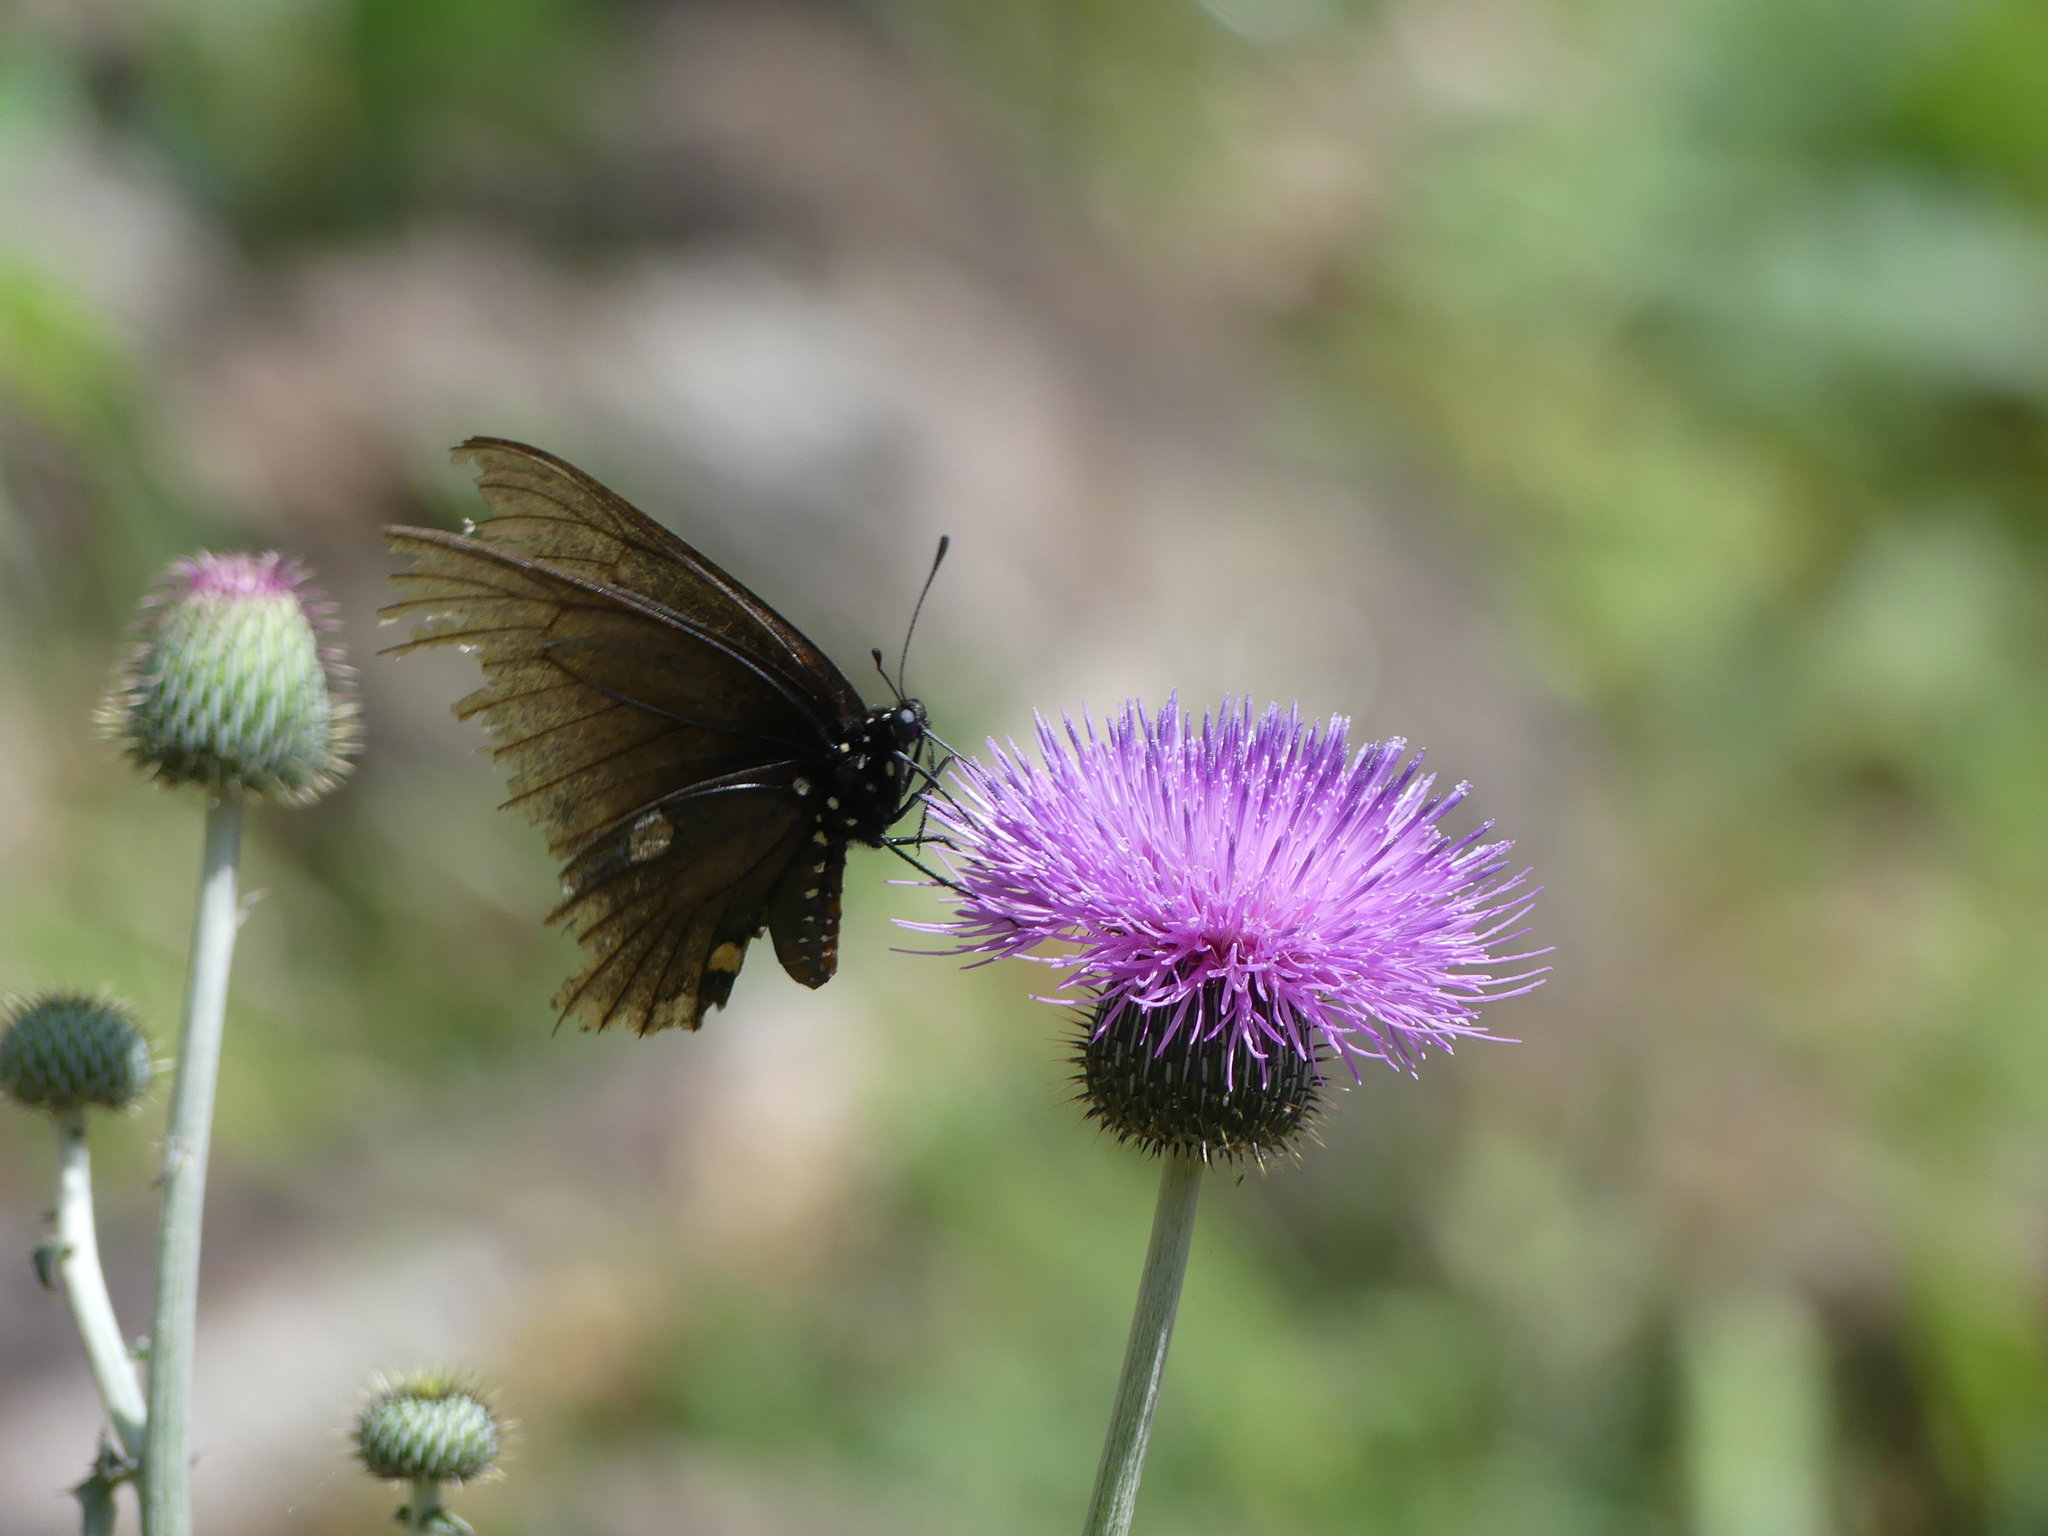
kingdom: Animalia
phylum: Arthropoda
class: Insecta
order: Lepidoptera
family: Papilionidae
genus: Battus
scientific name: Battus philenor
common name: Pipevine swallowtail
